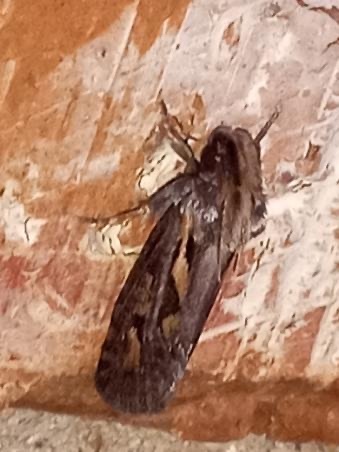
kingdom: Animalia
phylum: Arthropoda
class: Insecta
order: Lepidoptera
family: Tineidae
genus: Acrolophus
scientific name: Acrolophus popeanella
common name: Clemens' grass tubeworm moth
